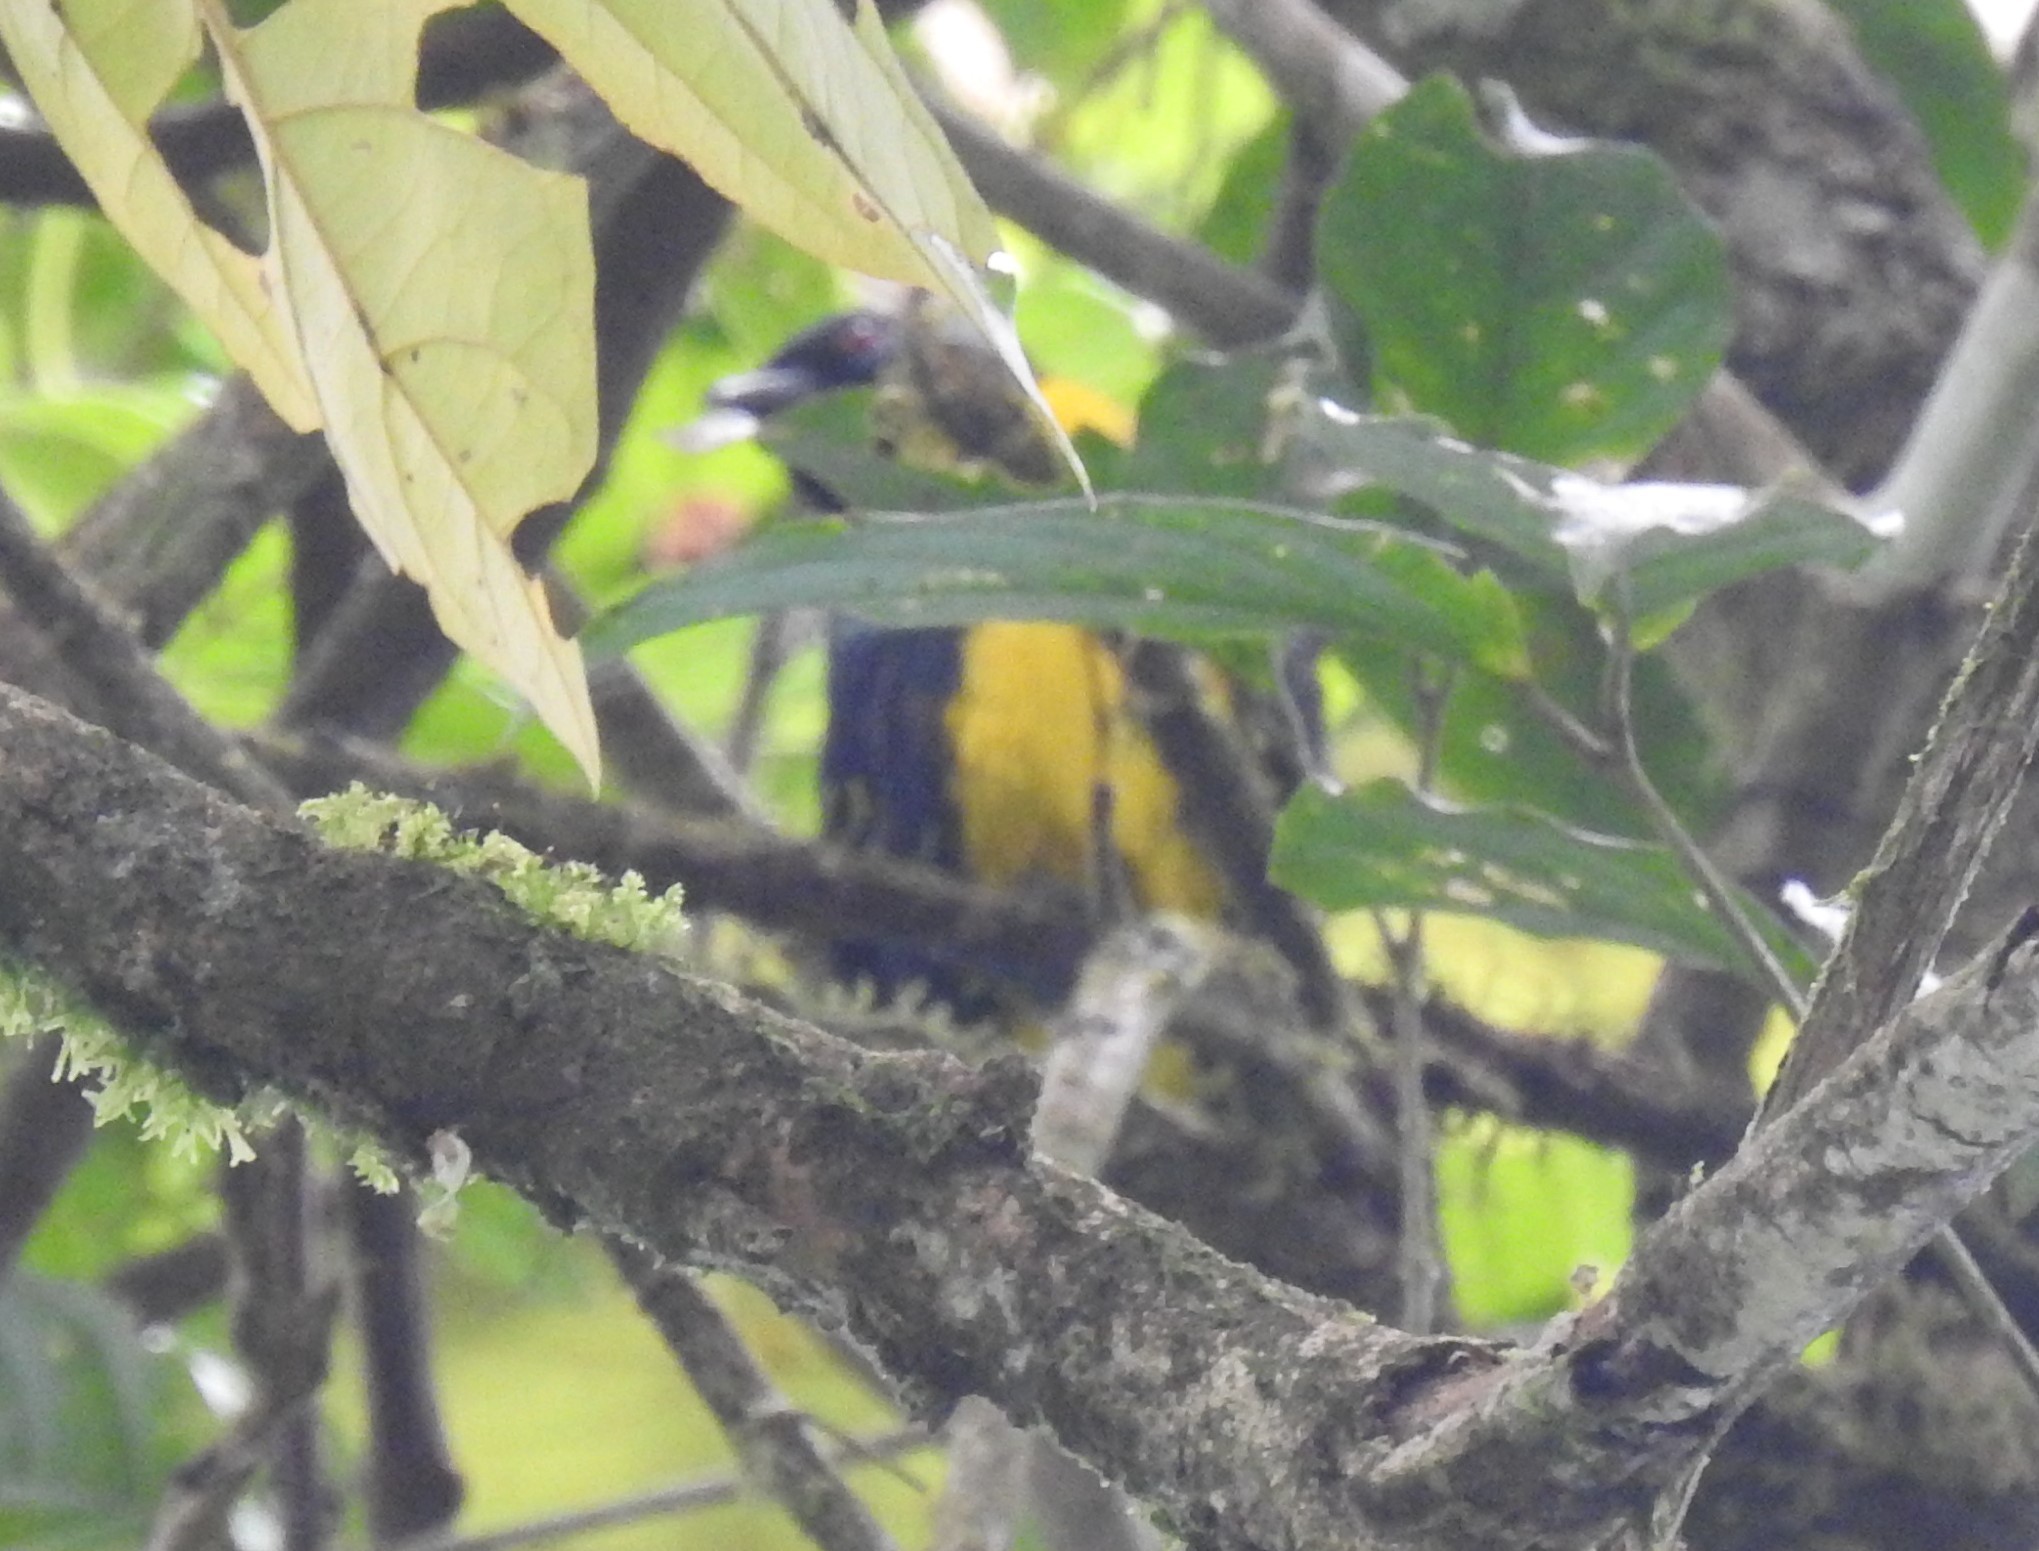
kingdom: Animalia
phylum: Chordata
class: Aves
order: Passeriformes
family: Thraupidae
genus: Bangsia
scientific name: Bangsia arcaei
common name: Blue-and-gold tanager
